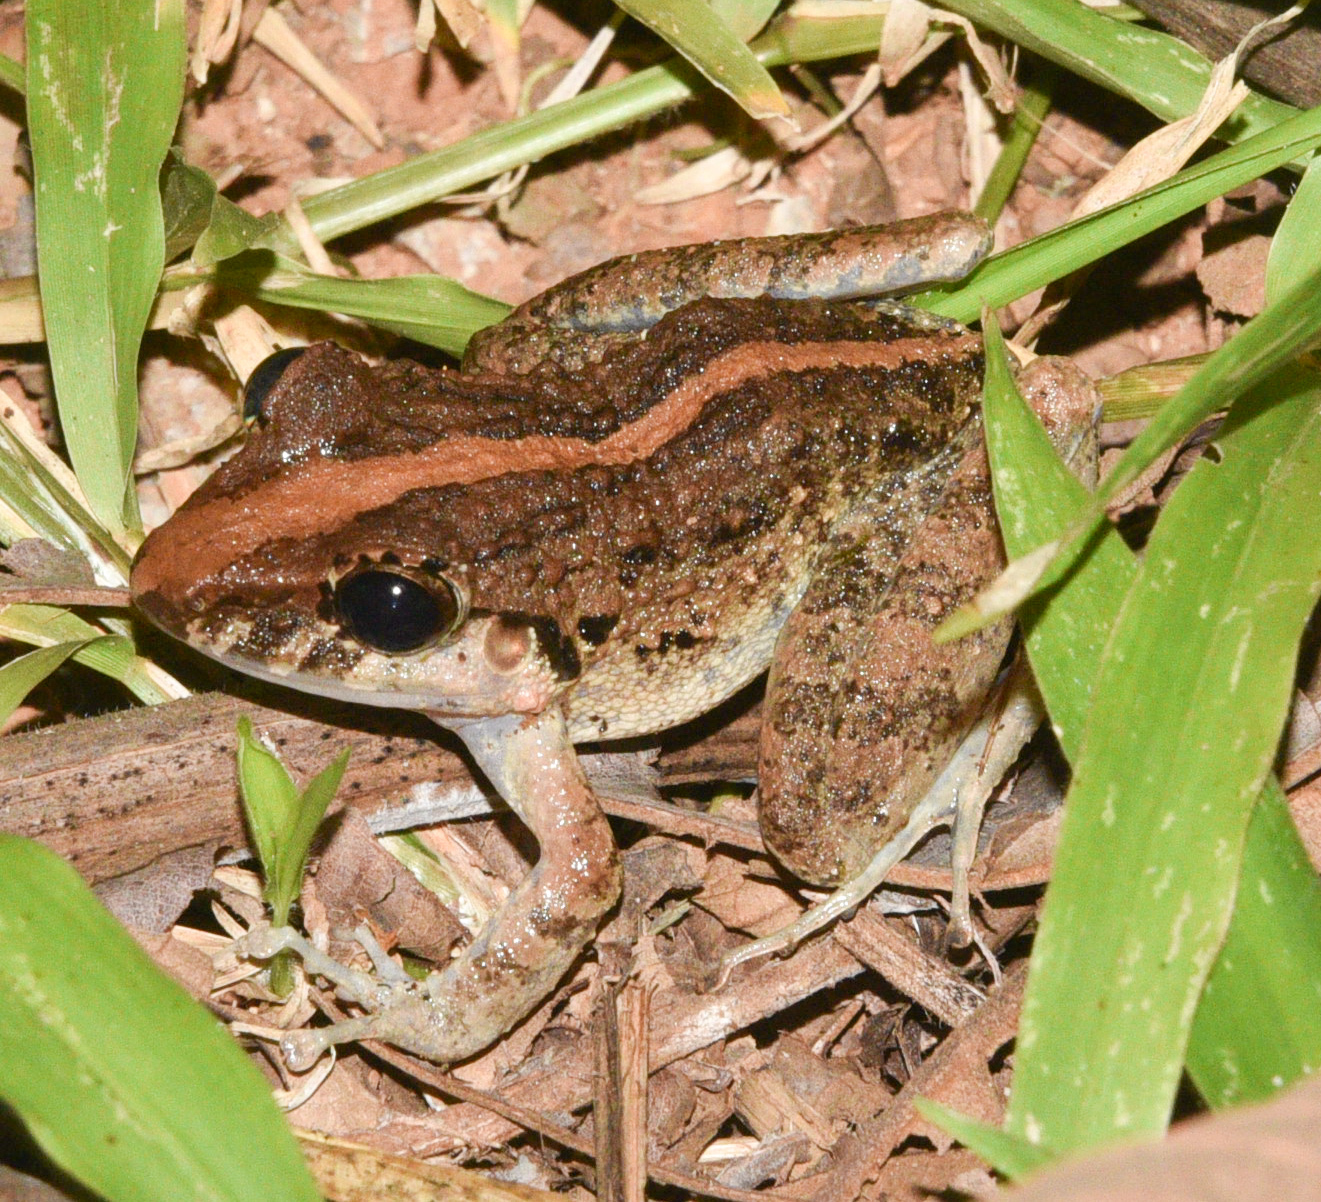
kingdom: Animalia
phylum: Chordata
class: Amphibia
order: Anura
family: Craugastoridae
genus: Craugastor
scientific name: Craugastor fitzingeri
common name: Fitzinger's robber frog
